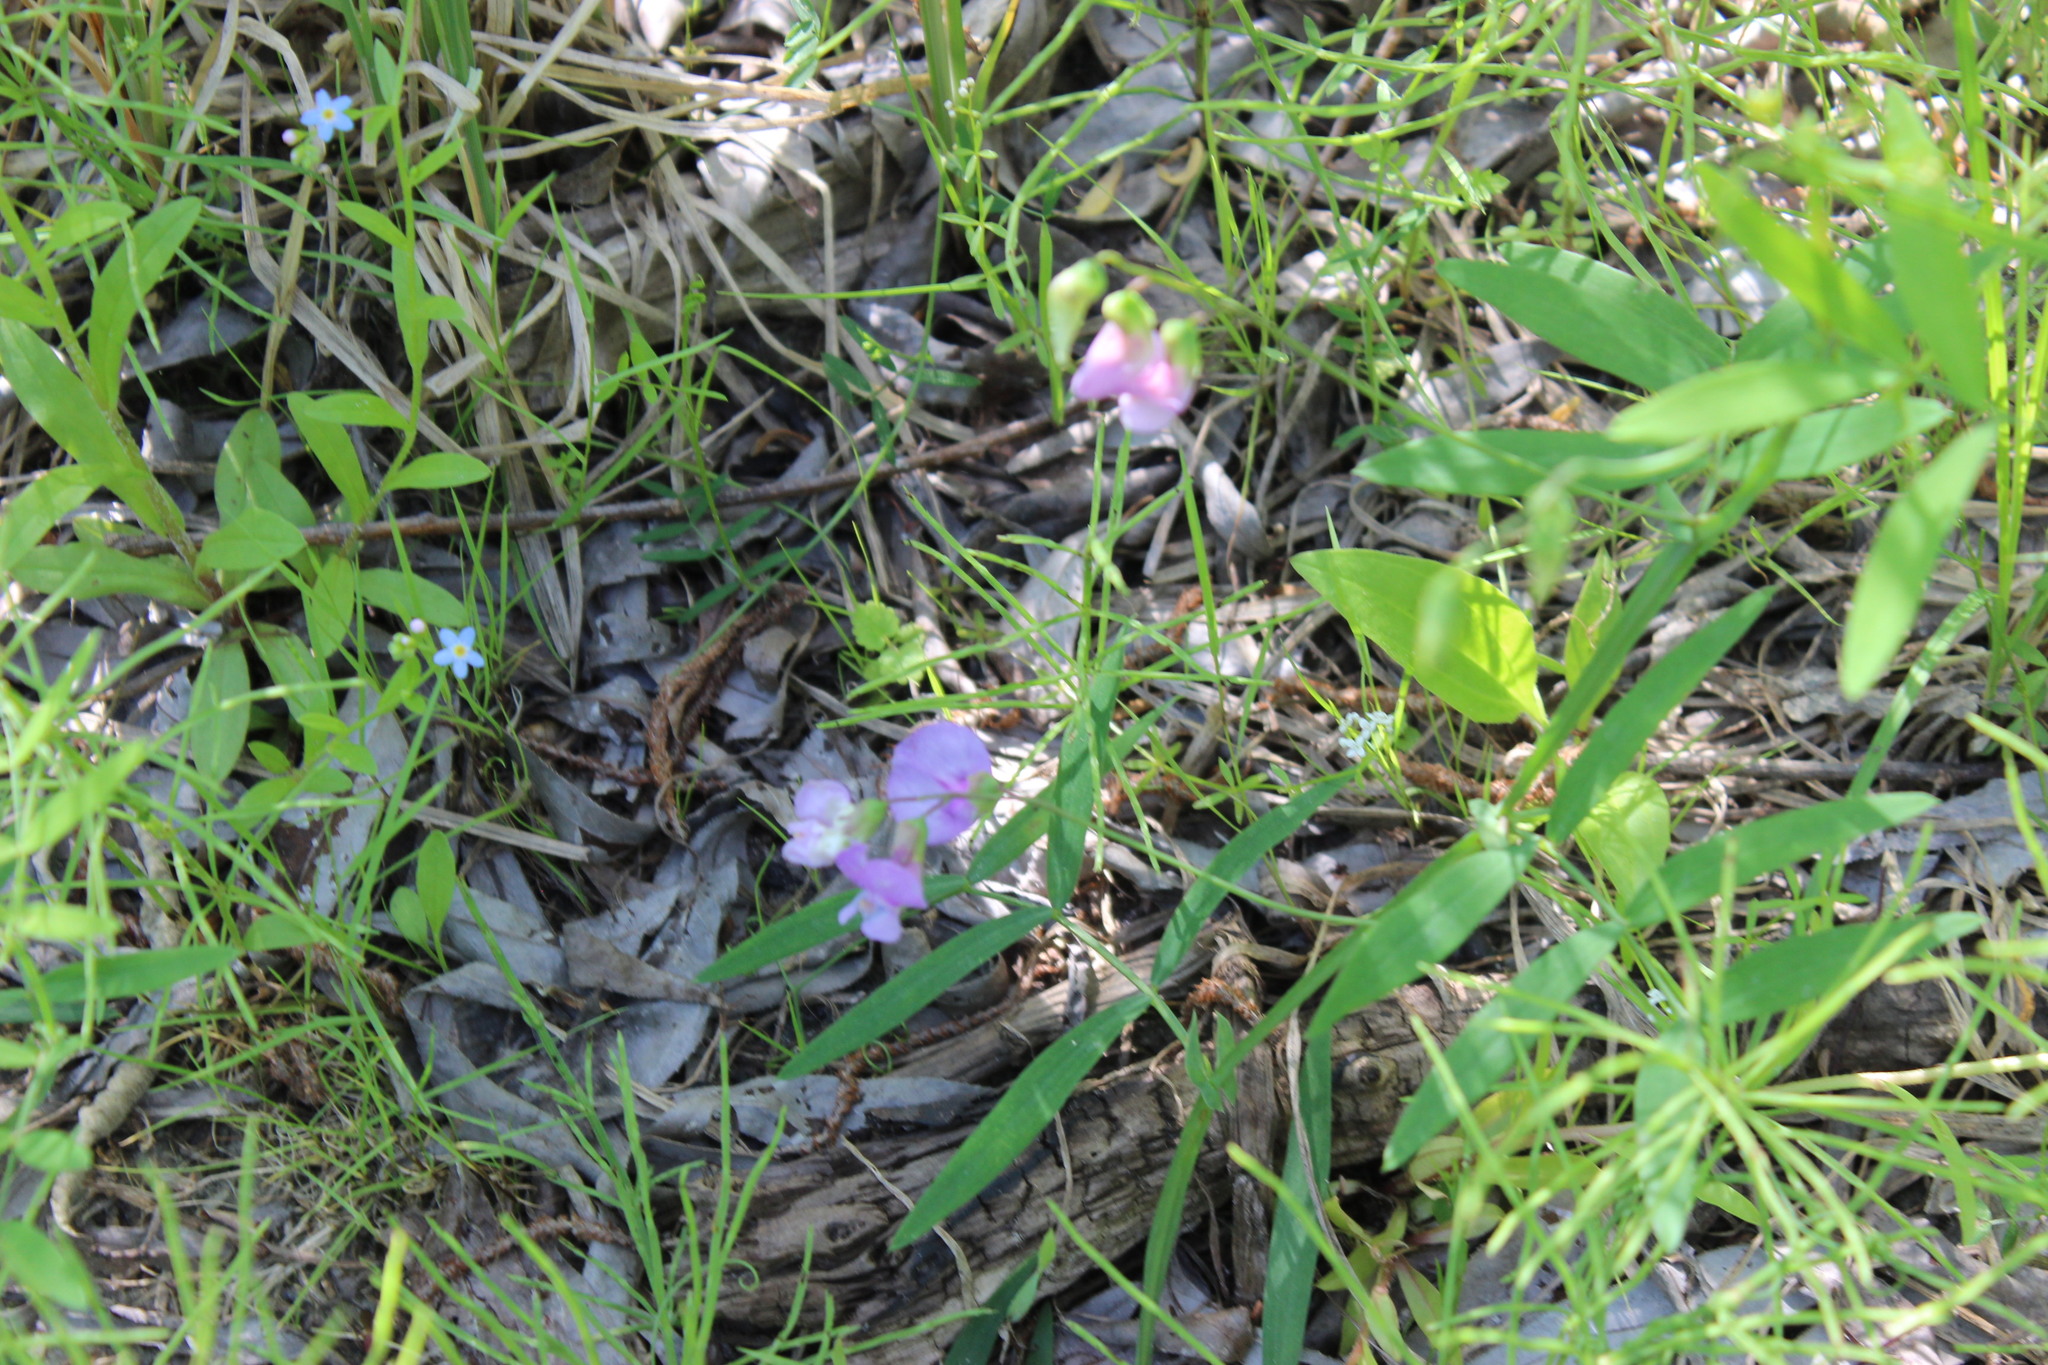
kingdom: Plantae
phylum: Tracheophyta
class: Magnoliopsida
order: Fabales
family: Fabaceae
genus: Lathyrus
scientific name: Lathyrus palustris
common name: Marsh pea
